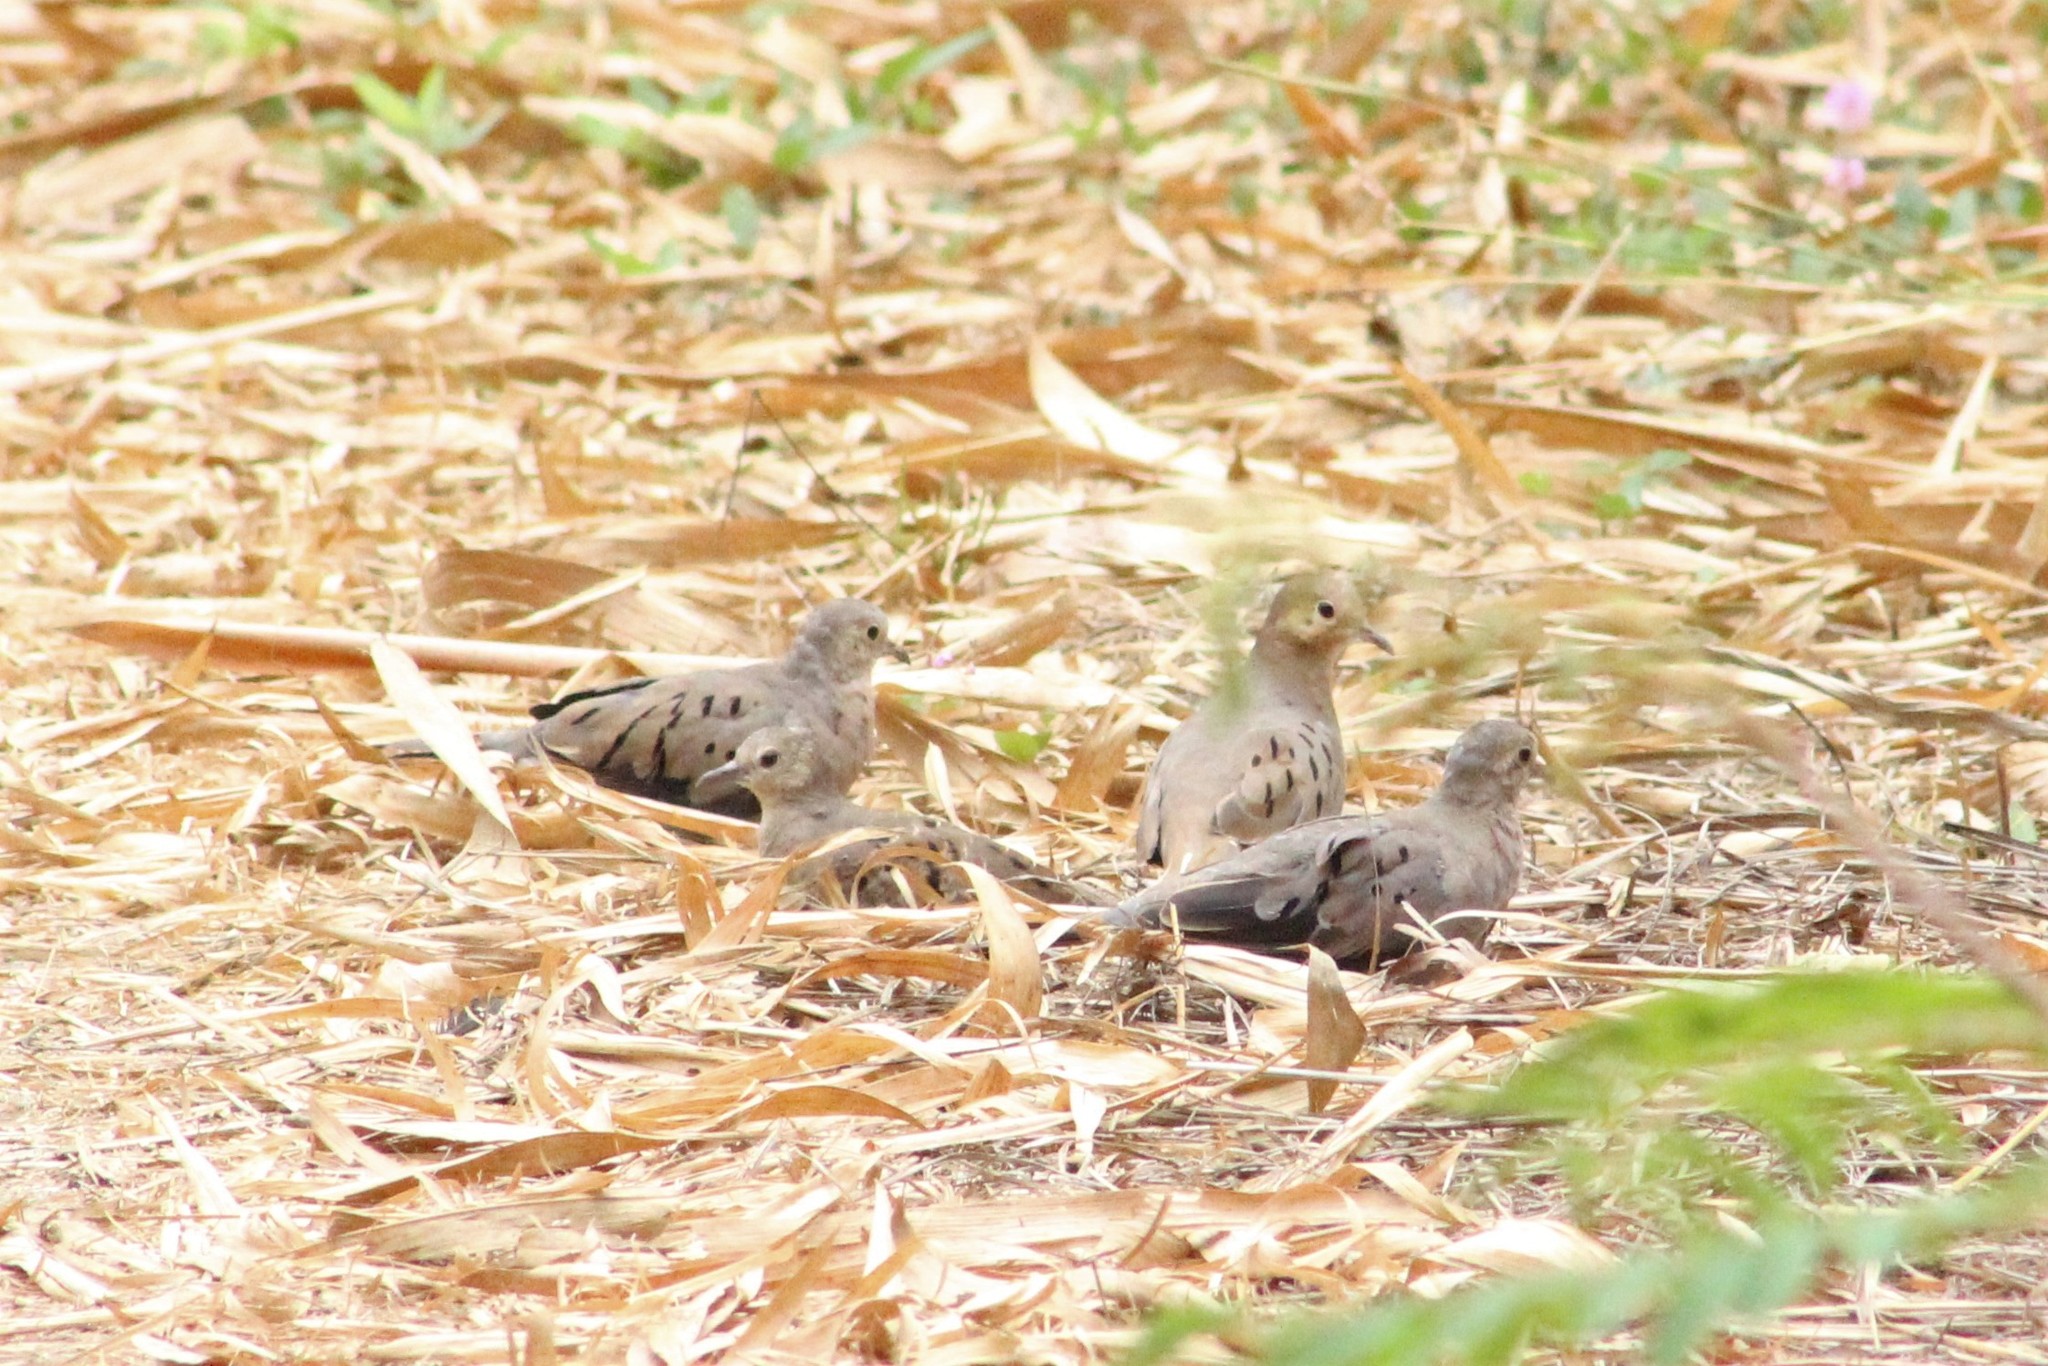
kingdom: Animalia
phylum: Chordata
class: Aves
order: Columbiformes
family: Columbidae
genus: Columbina
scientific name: Columbina buckleyi
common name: Ecuadorian ground dove
